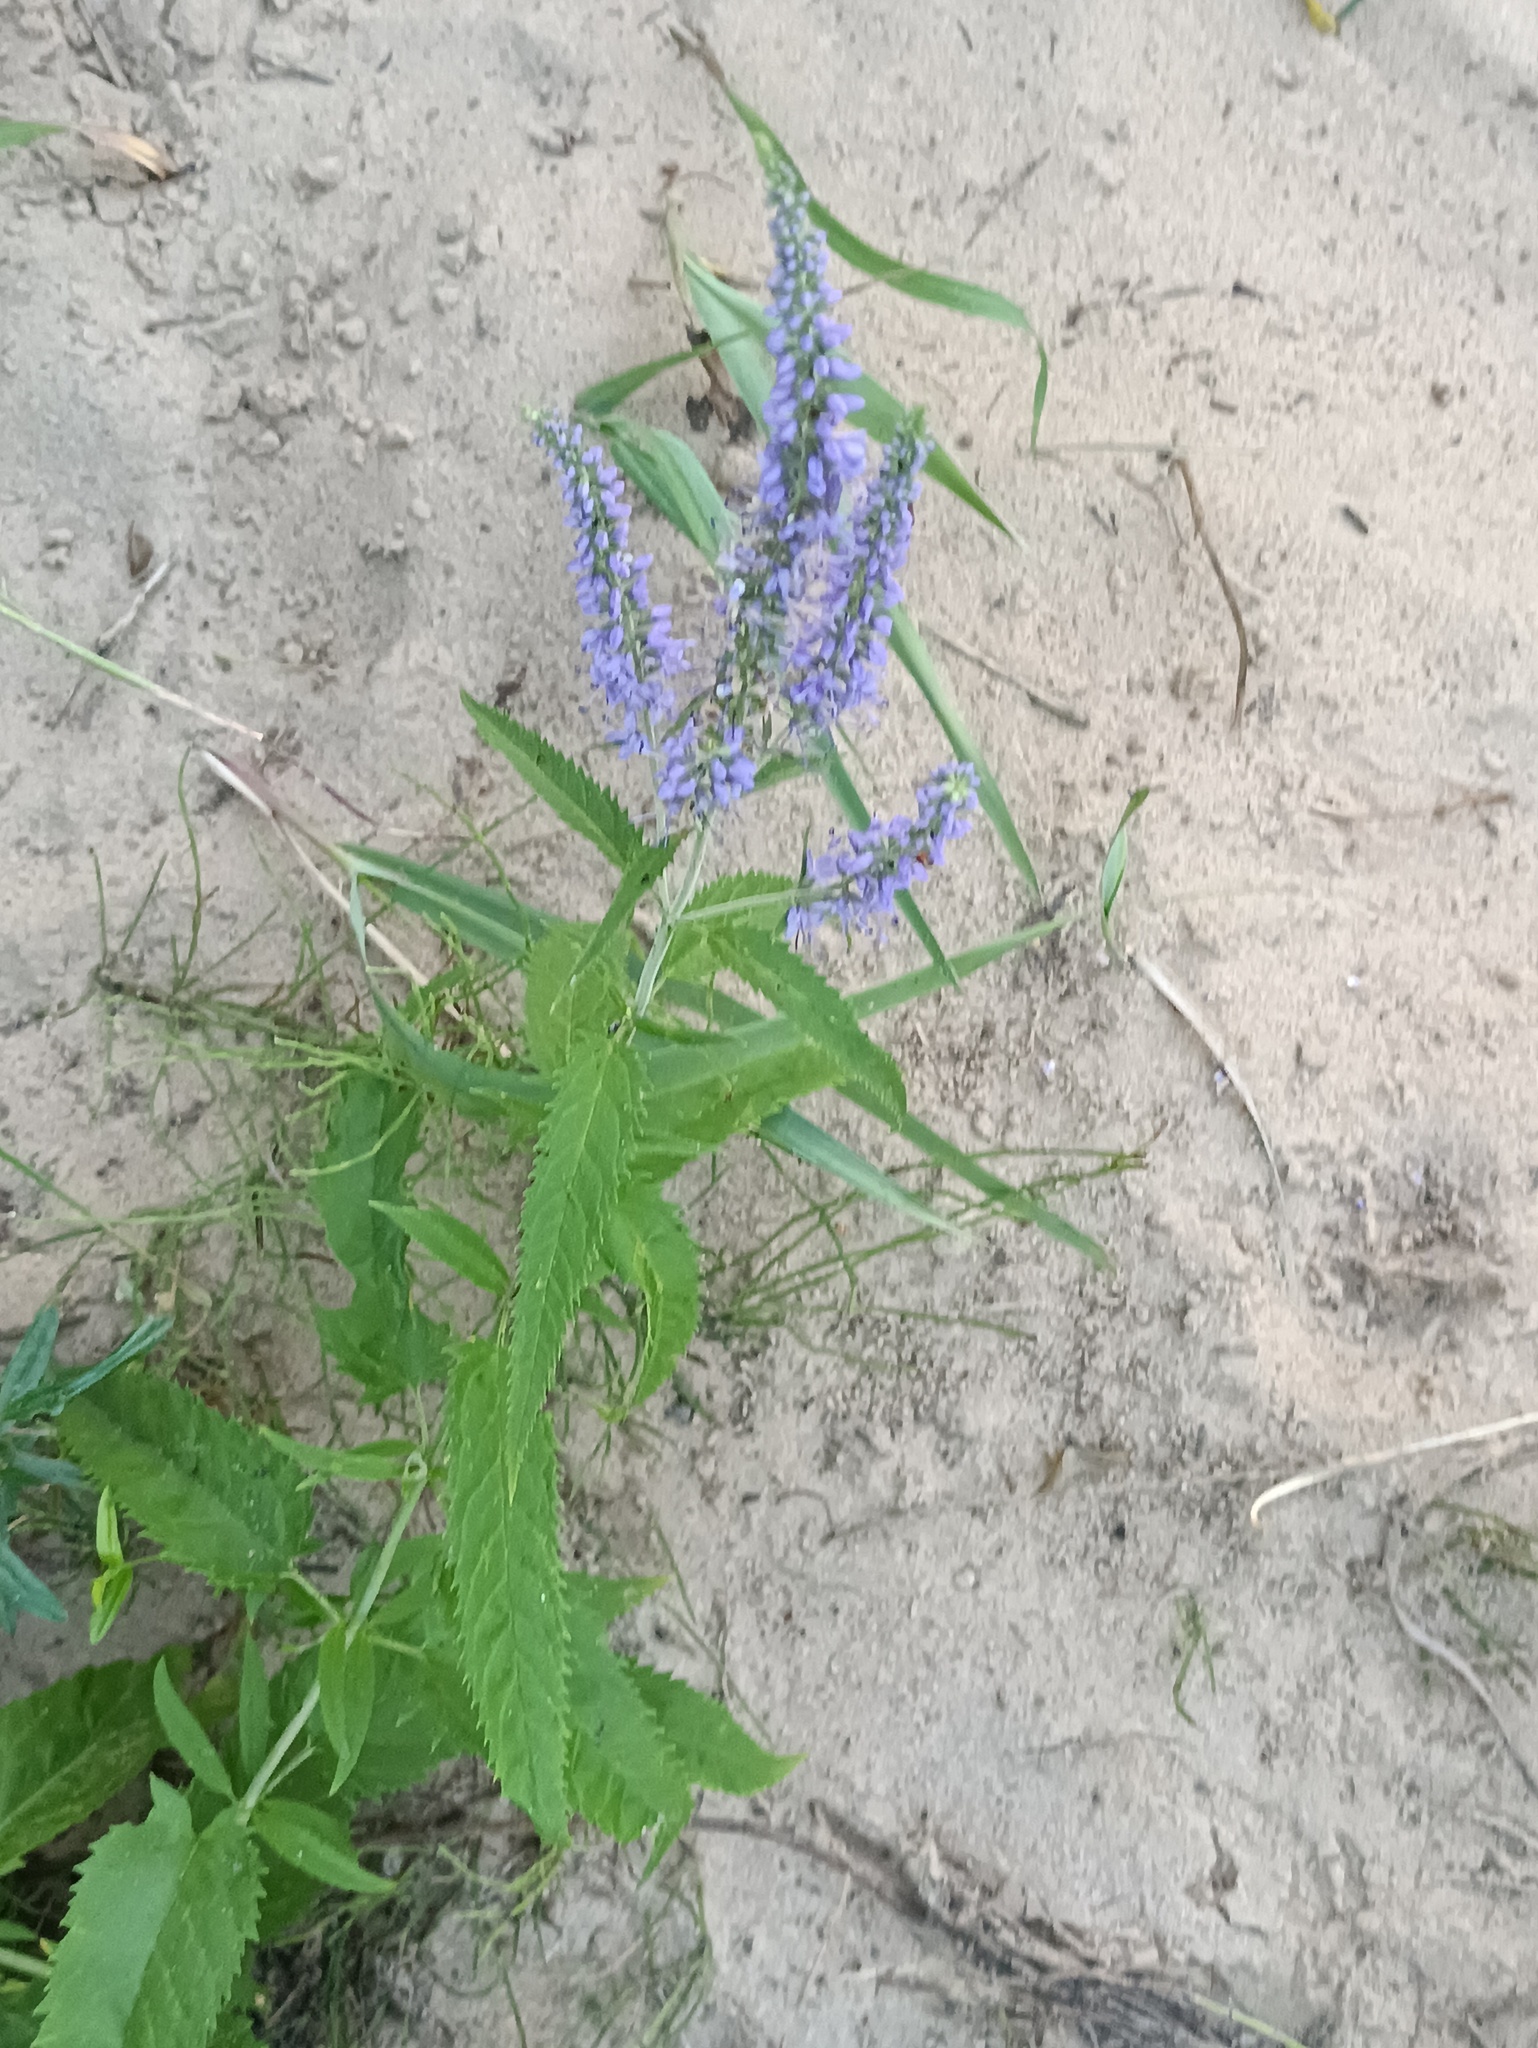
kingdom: Plantae
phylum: Tracheophyta
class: Magnoliopsida
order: Lamiales
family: Plantaginaceae
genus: Veronica
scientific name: Veronica longifolia
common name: Garden speedwell
